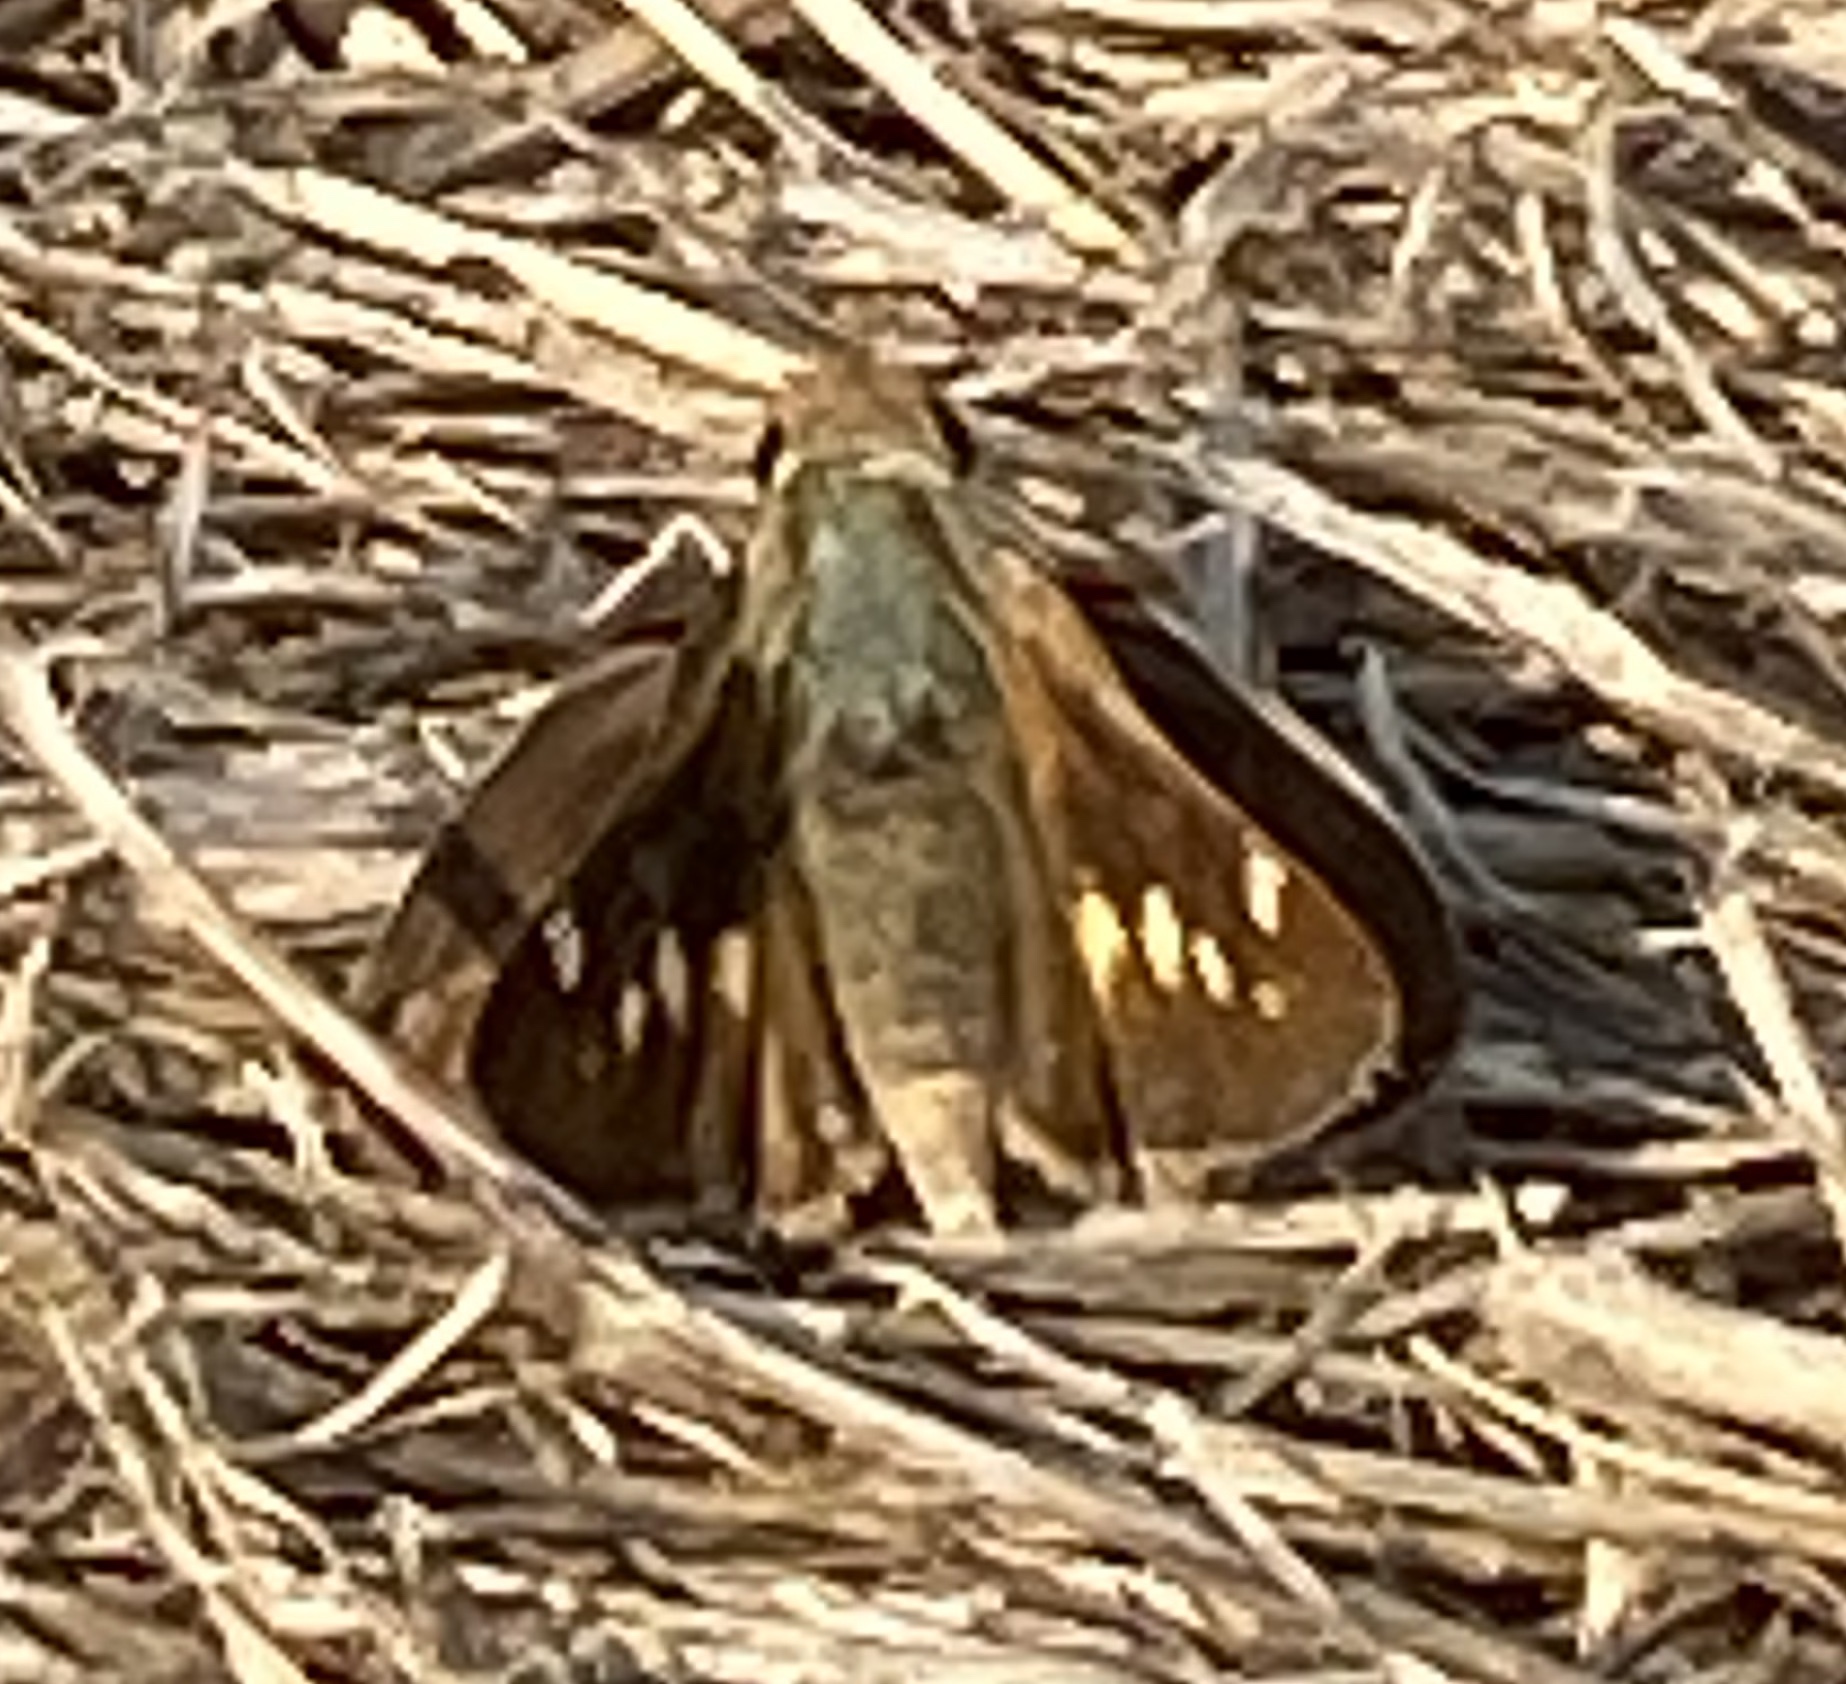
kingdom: Animalia
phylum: Arthropoda
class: Insecta
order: Lepidoptera
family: Hesperiidae
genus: Lon
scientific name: Lon melane
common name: Umber skipper
